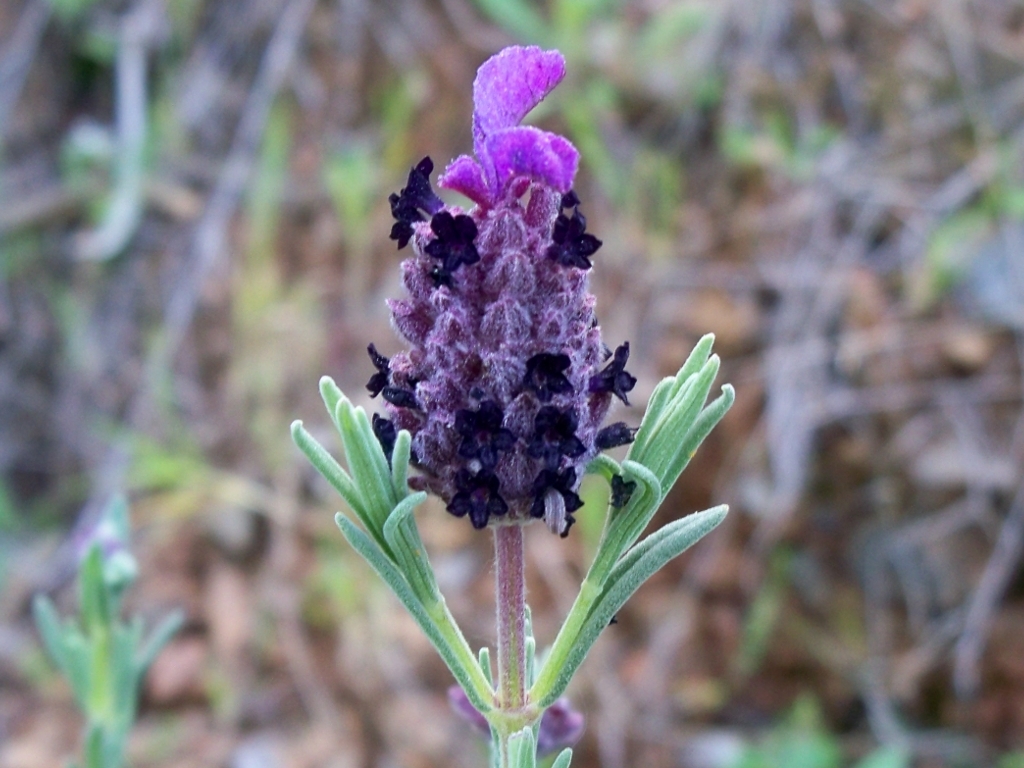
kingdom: Plantae
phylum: Tracheophyta
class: Magnoliopsida
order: Lamiales
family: Lamiaceae
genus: Lavandula
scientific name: Lavandula stoechas
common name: French lavender
